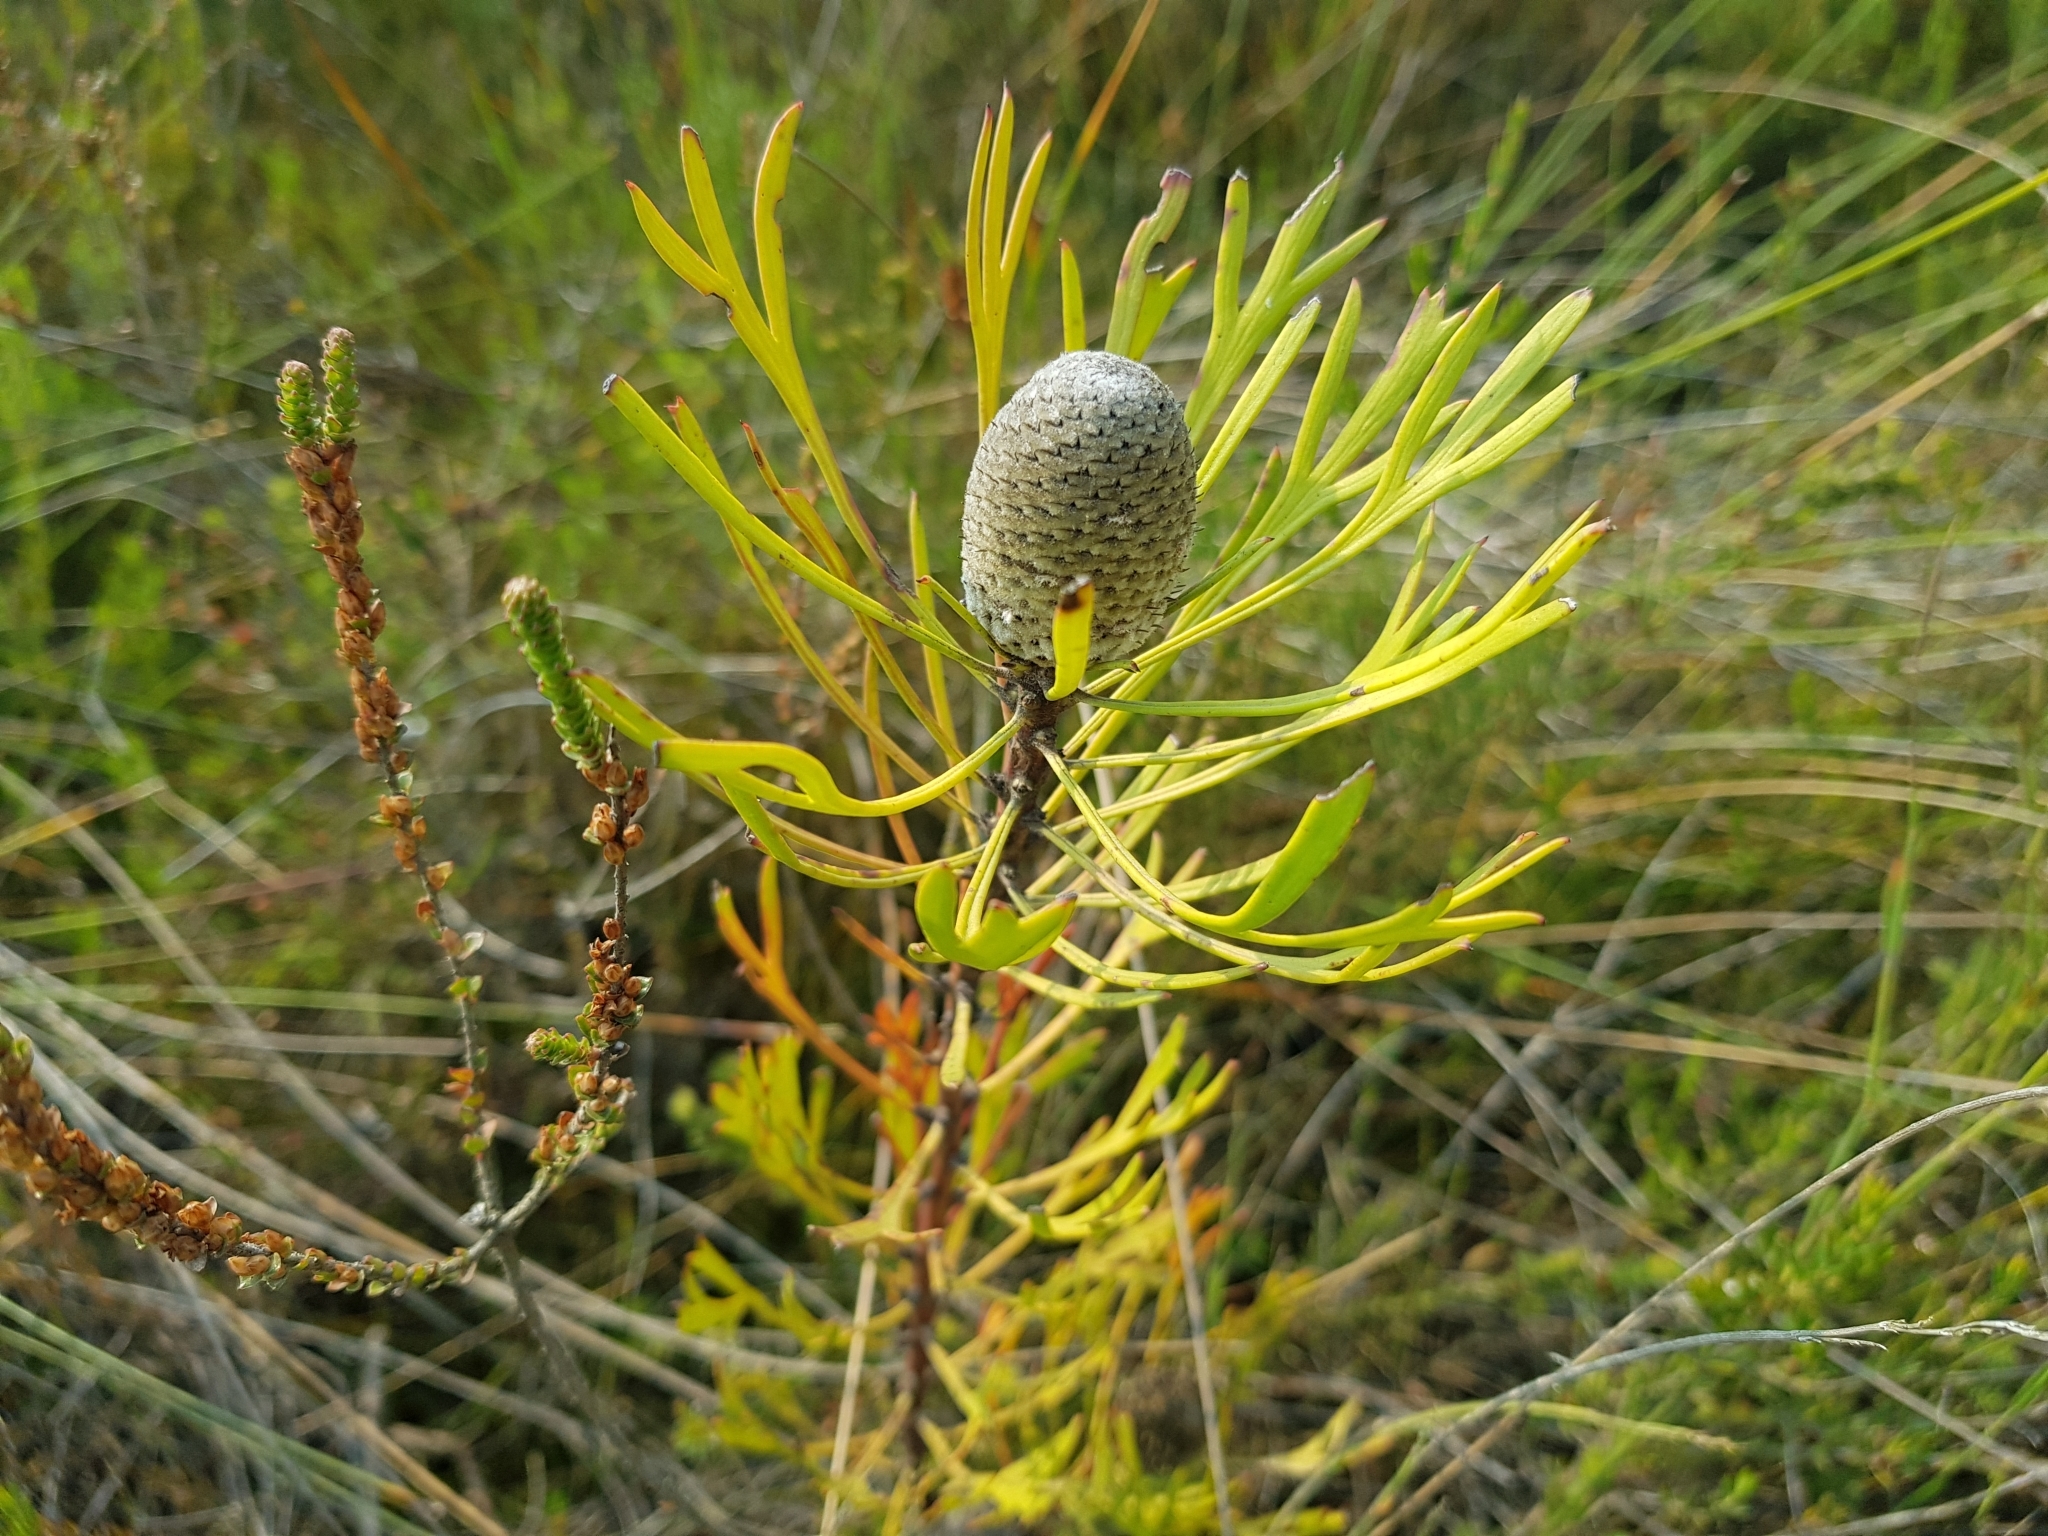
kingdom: Plantae
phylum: Tracheophyta
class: Magnoliopsida
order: Proteales
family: Proteaceae
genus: Isopogon
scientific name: Isopogon anemonifolius
